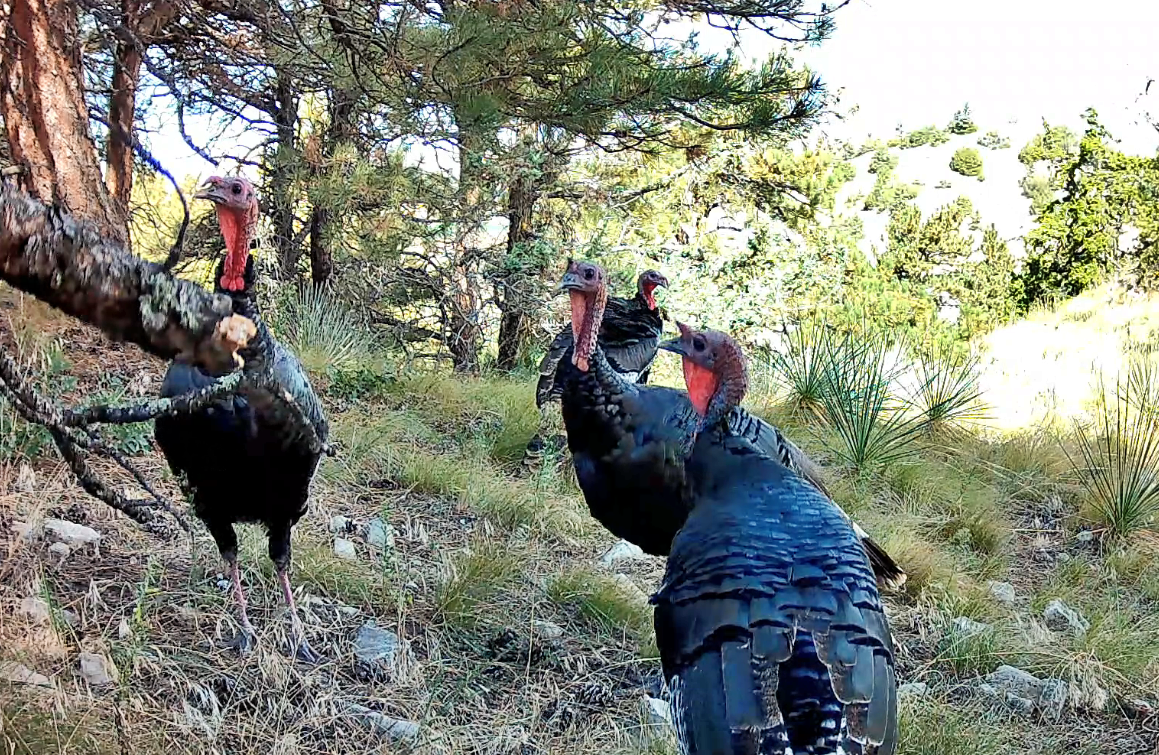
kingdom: Animalia
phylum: Chordata
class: Aves
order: Galliformes
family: Phasianidae
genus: Meleagris
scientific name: Meleagris gallopavo
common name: Wild turkey
